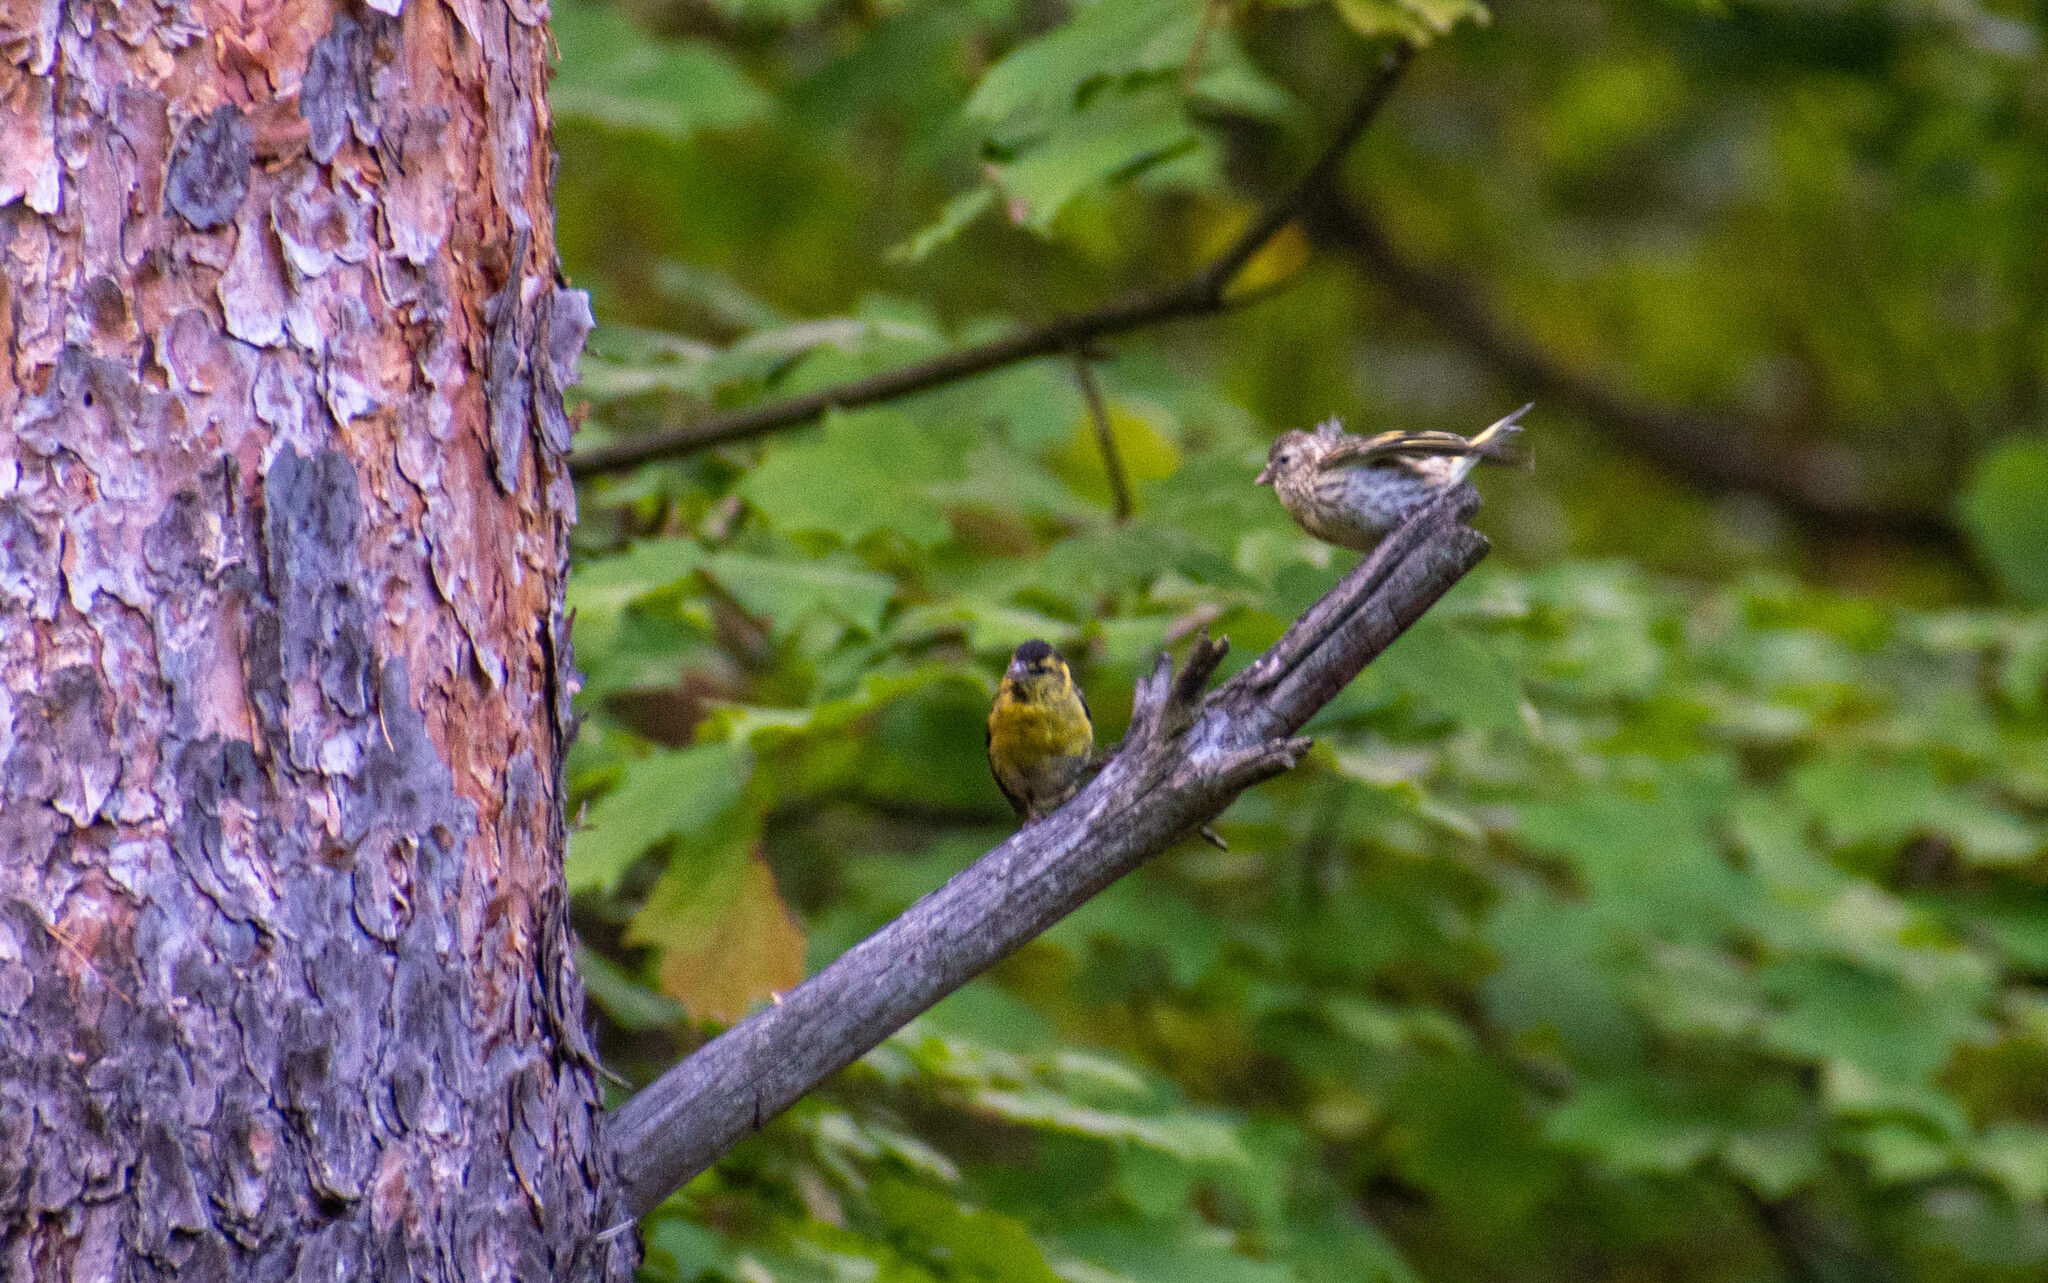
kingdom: Animalia
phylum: Chordata
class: Aves
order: Passeriformes
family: Fringillidae
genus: Spinus
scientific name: Spinus spinus
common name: Eurasian siskin
